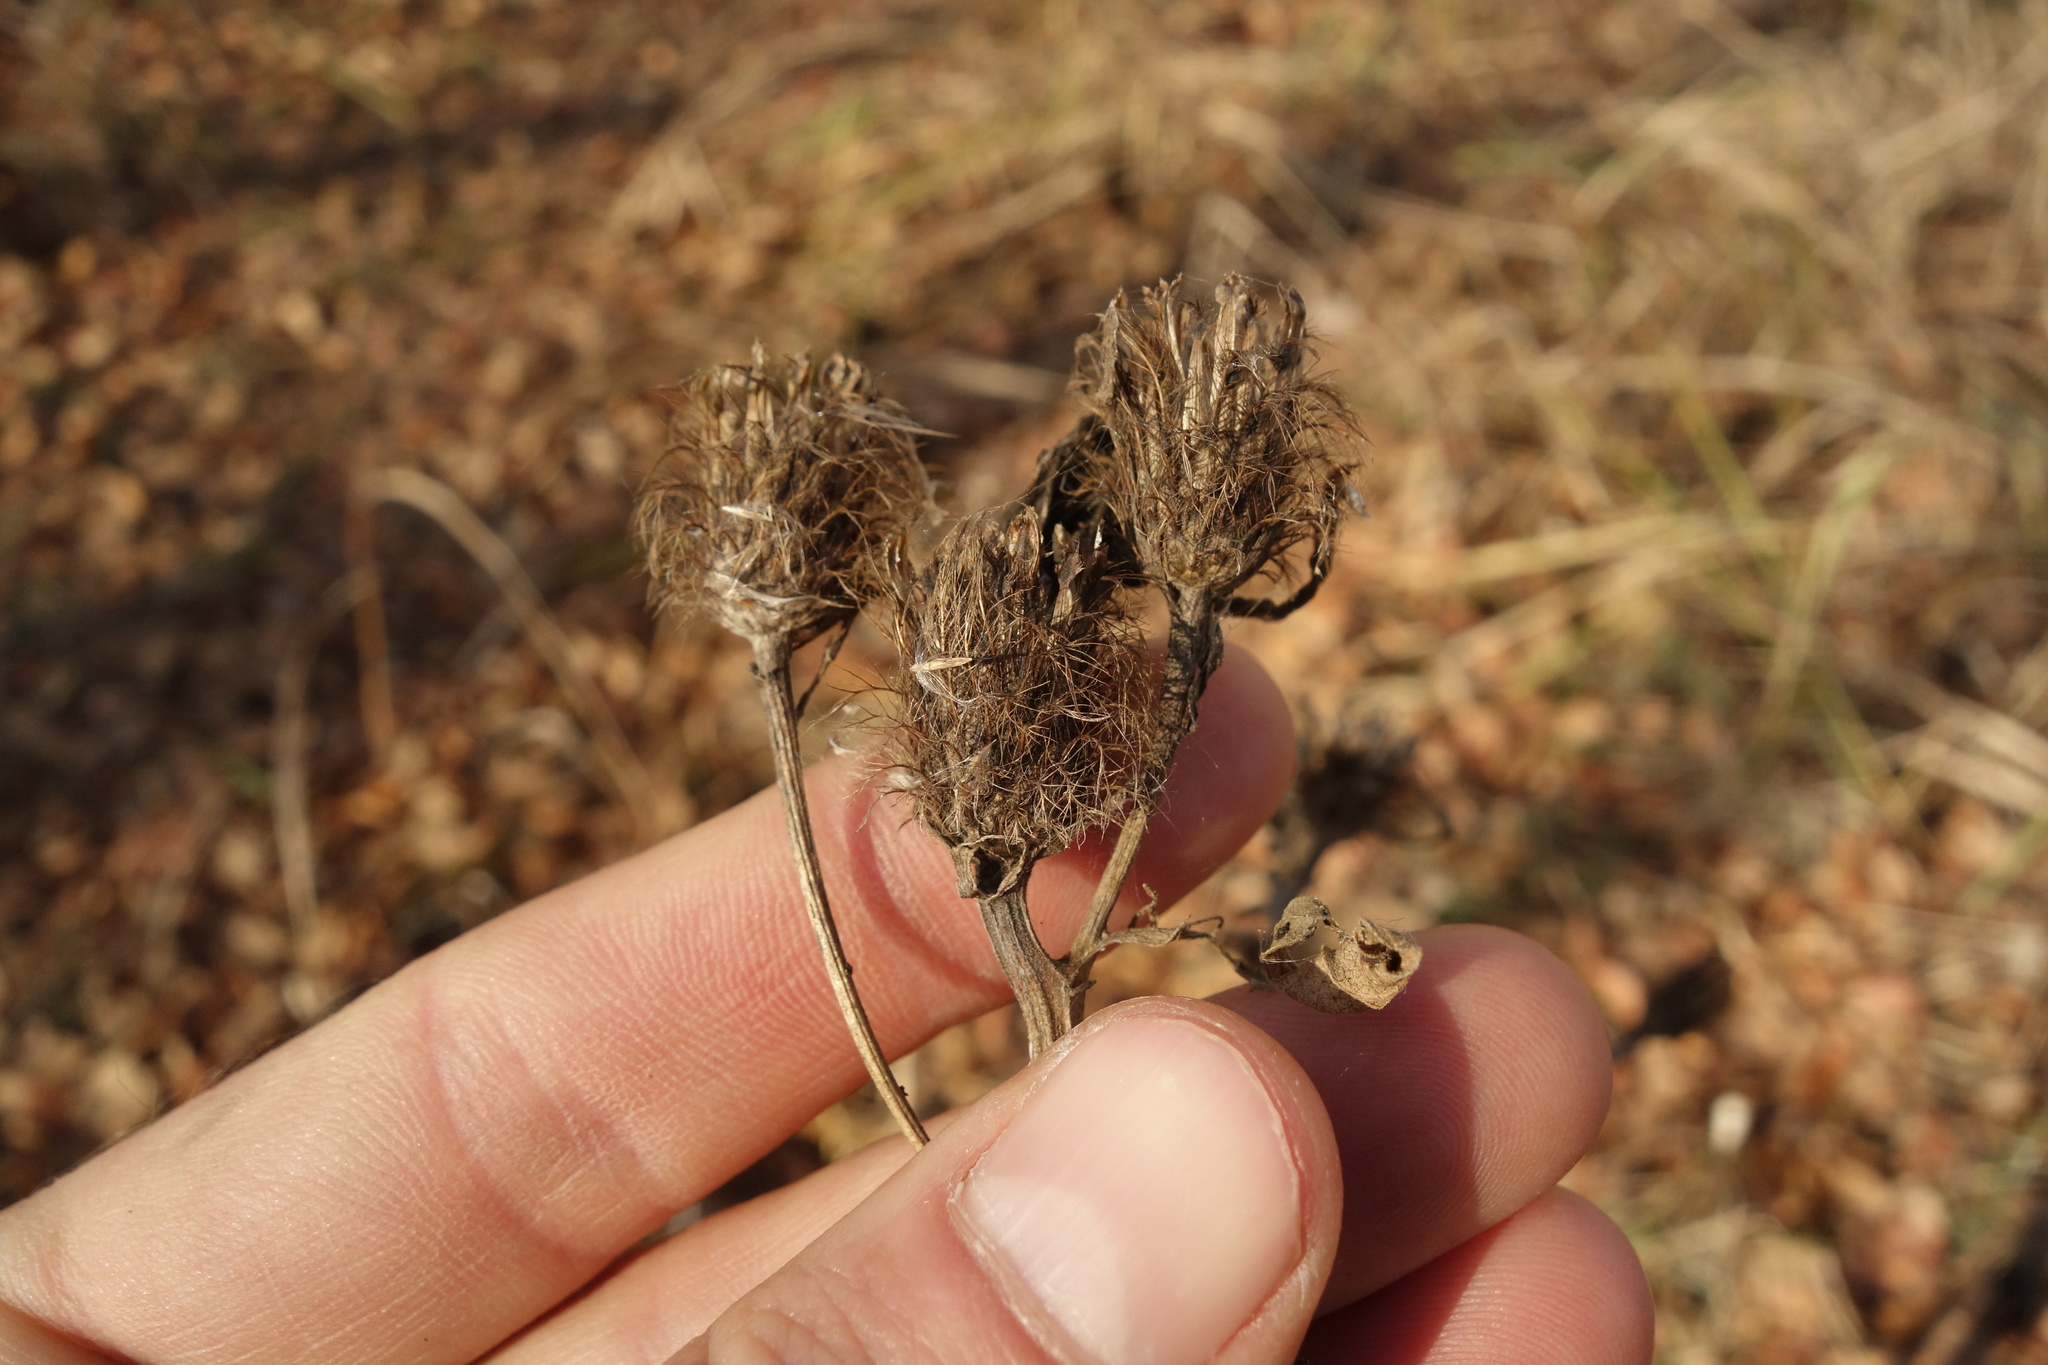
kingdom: Plantae
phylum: Tracheophyta
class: Magnoliopsida
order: Asterales
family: Asteraceae
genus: Centaurea
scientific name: Centaurea pseudophrygia
